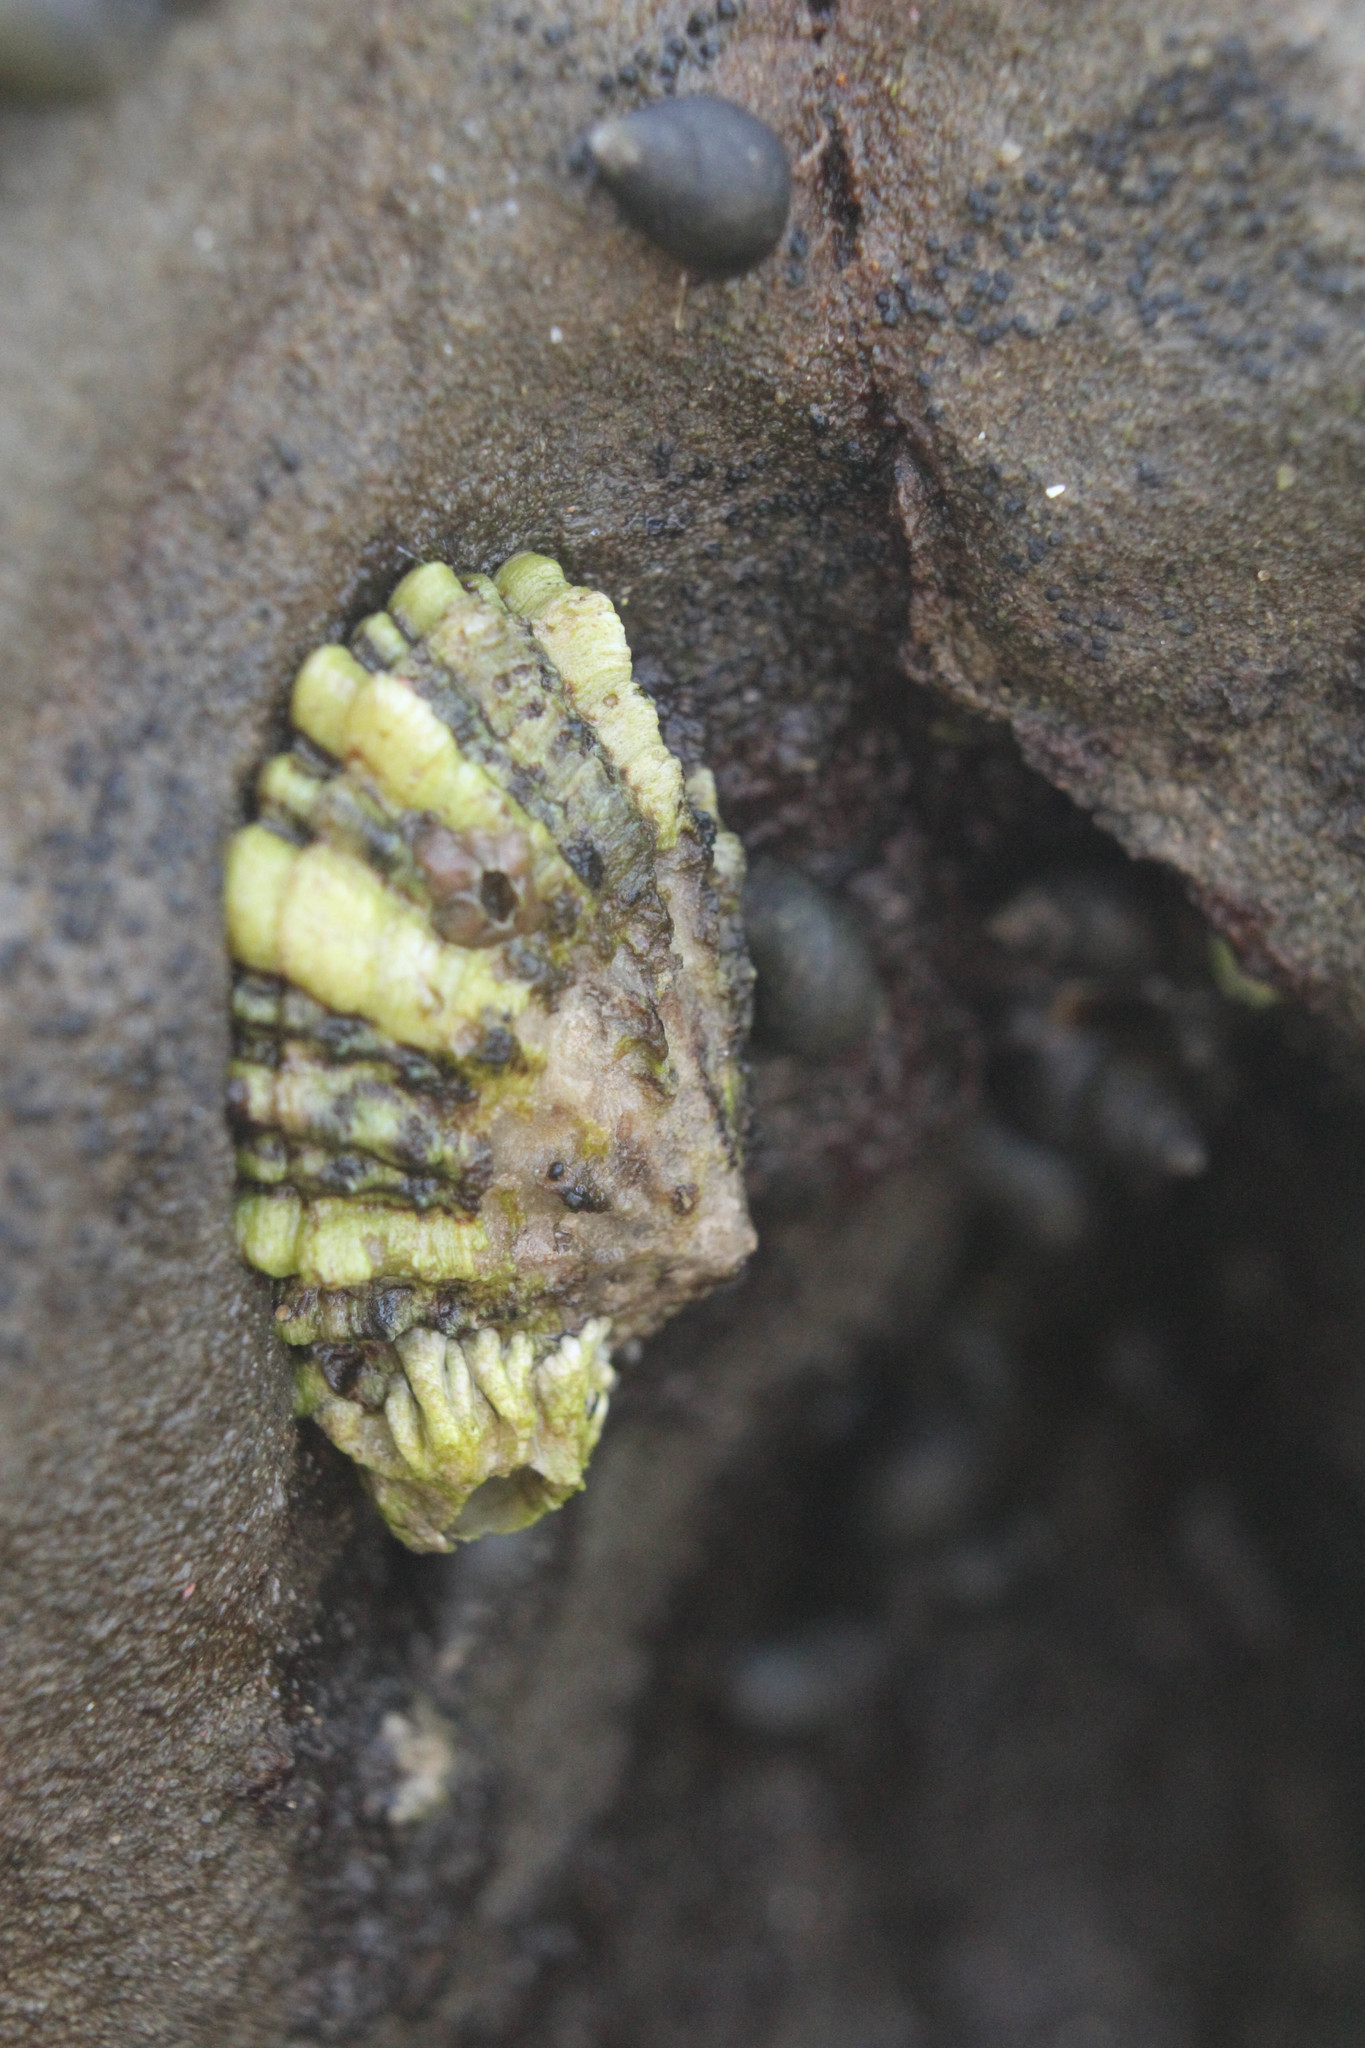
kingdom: Animalia
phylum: Mollusca
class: Gastropoda
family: Lottiidae
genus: Lottia
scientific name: Lottia scabra
